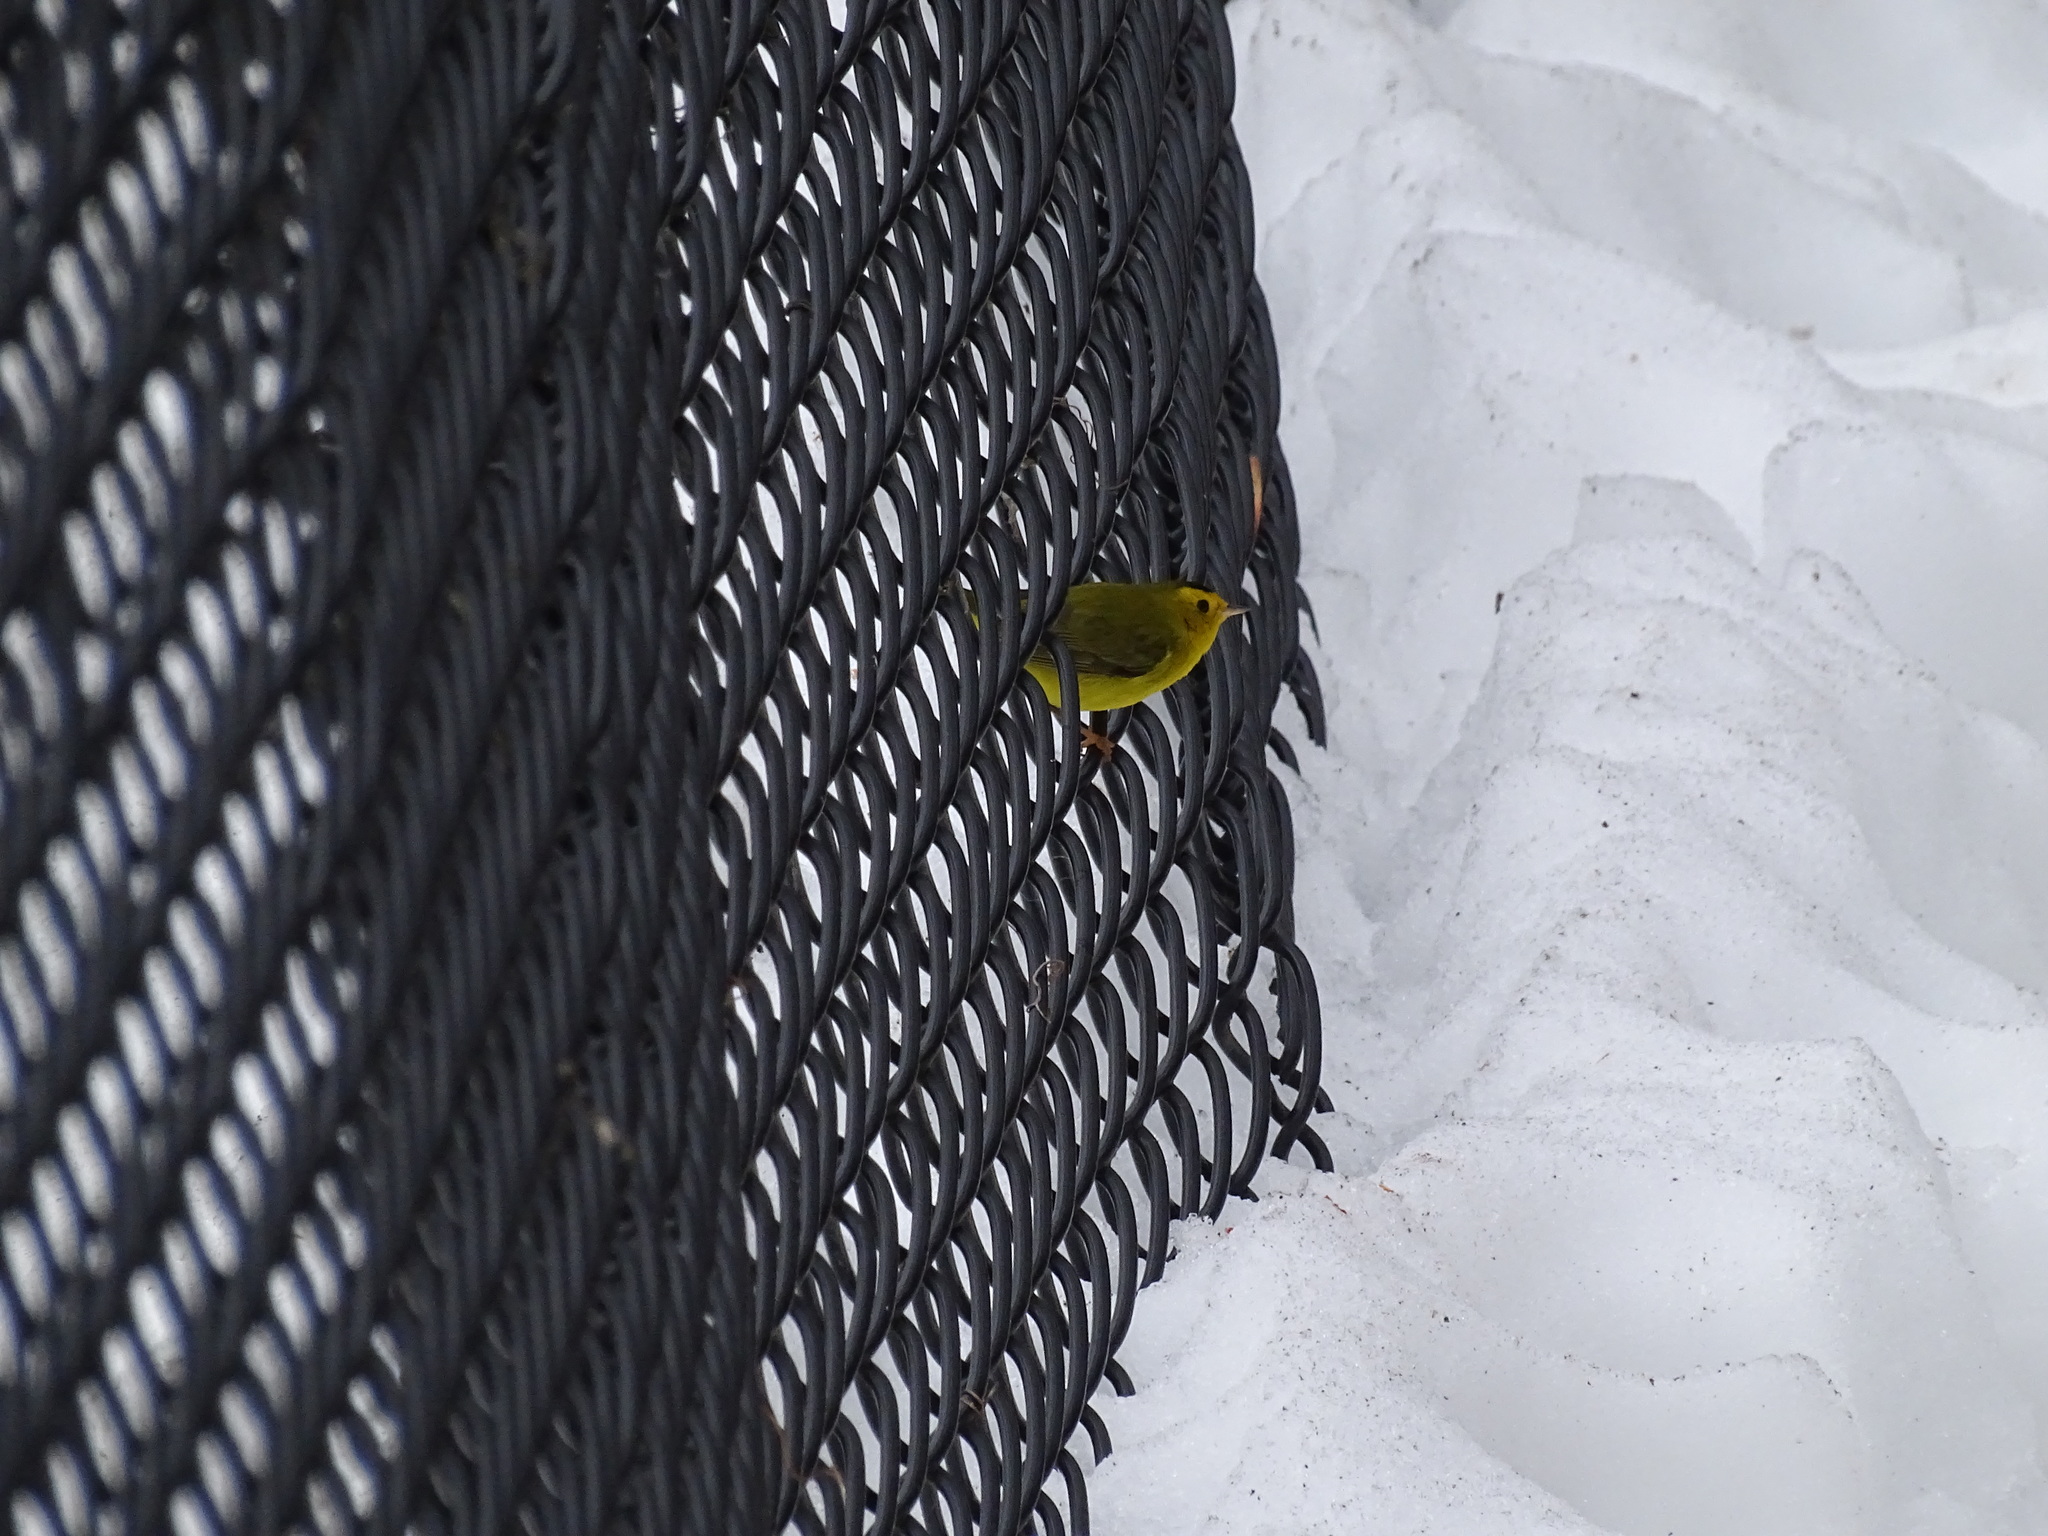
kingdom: Animalia
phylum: Chordata
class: Aves
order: Passeriformes
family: Parulidae
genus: Cardellina
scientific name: Cardellina pusilla
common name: Wilson's warbler
